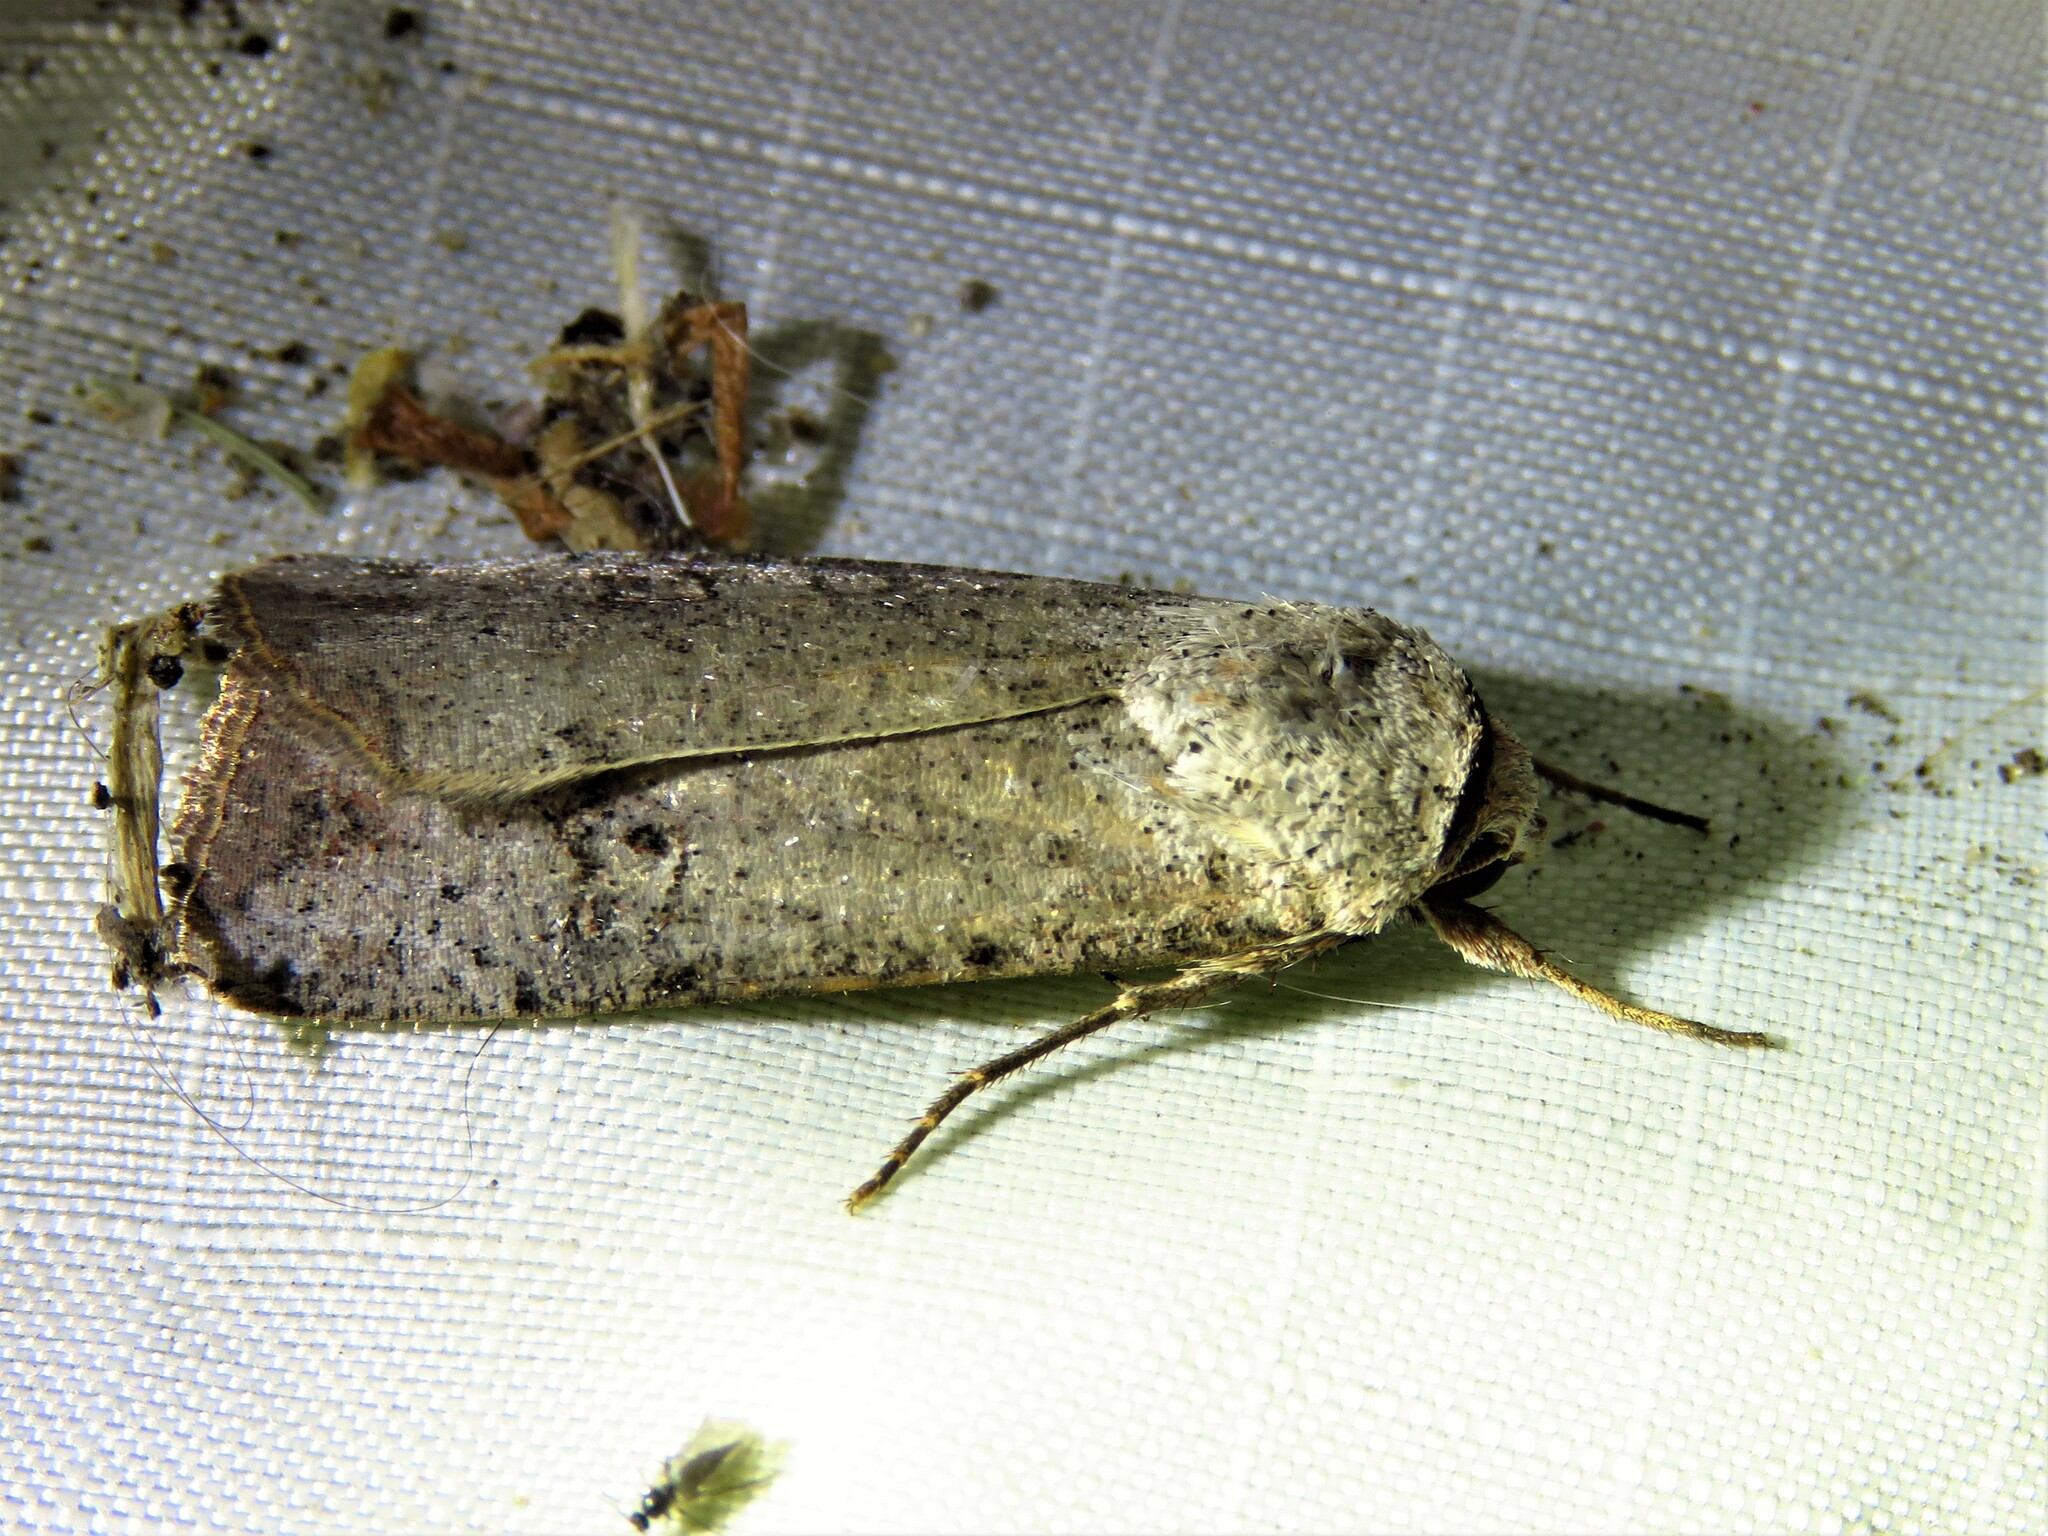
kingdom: Animalia
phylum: Arthropoda
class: Insecta
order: Lepidoptera
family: Noctuidae
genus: Anicla
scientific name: Anicla infecta
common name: Green cutworm
